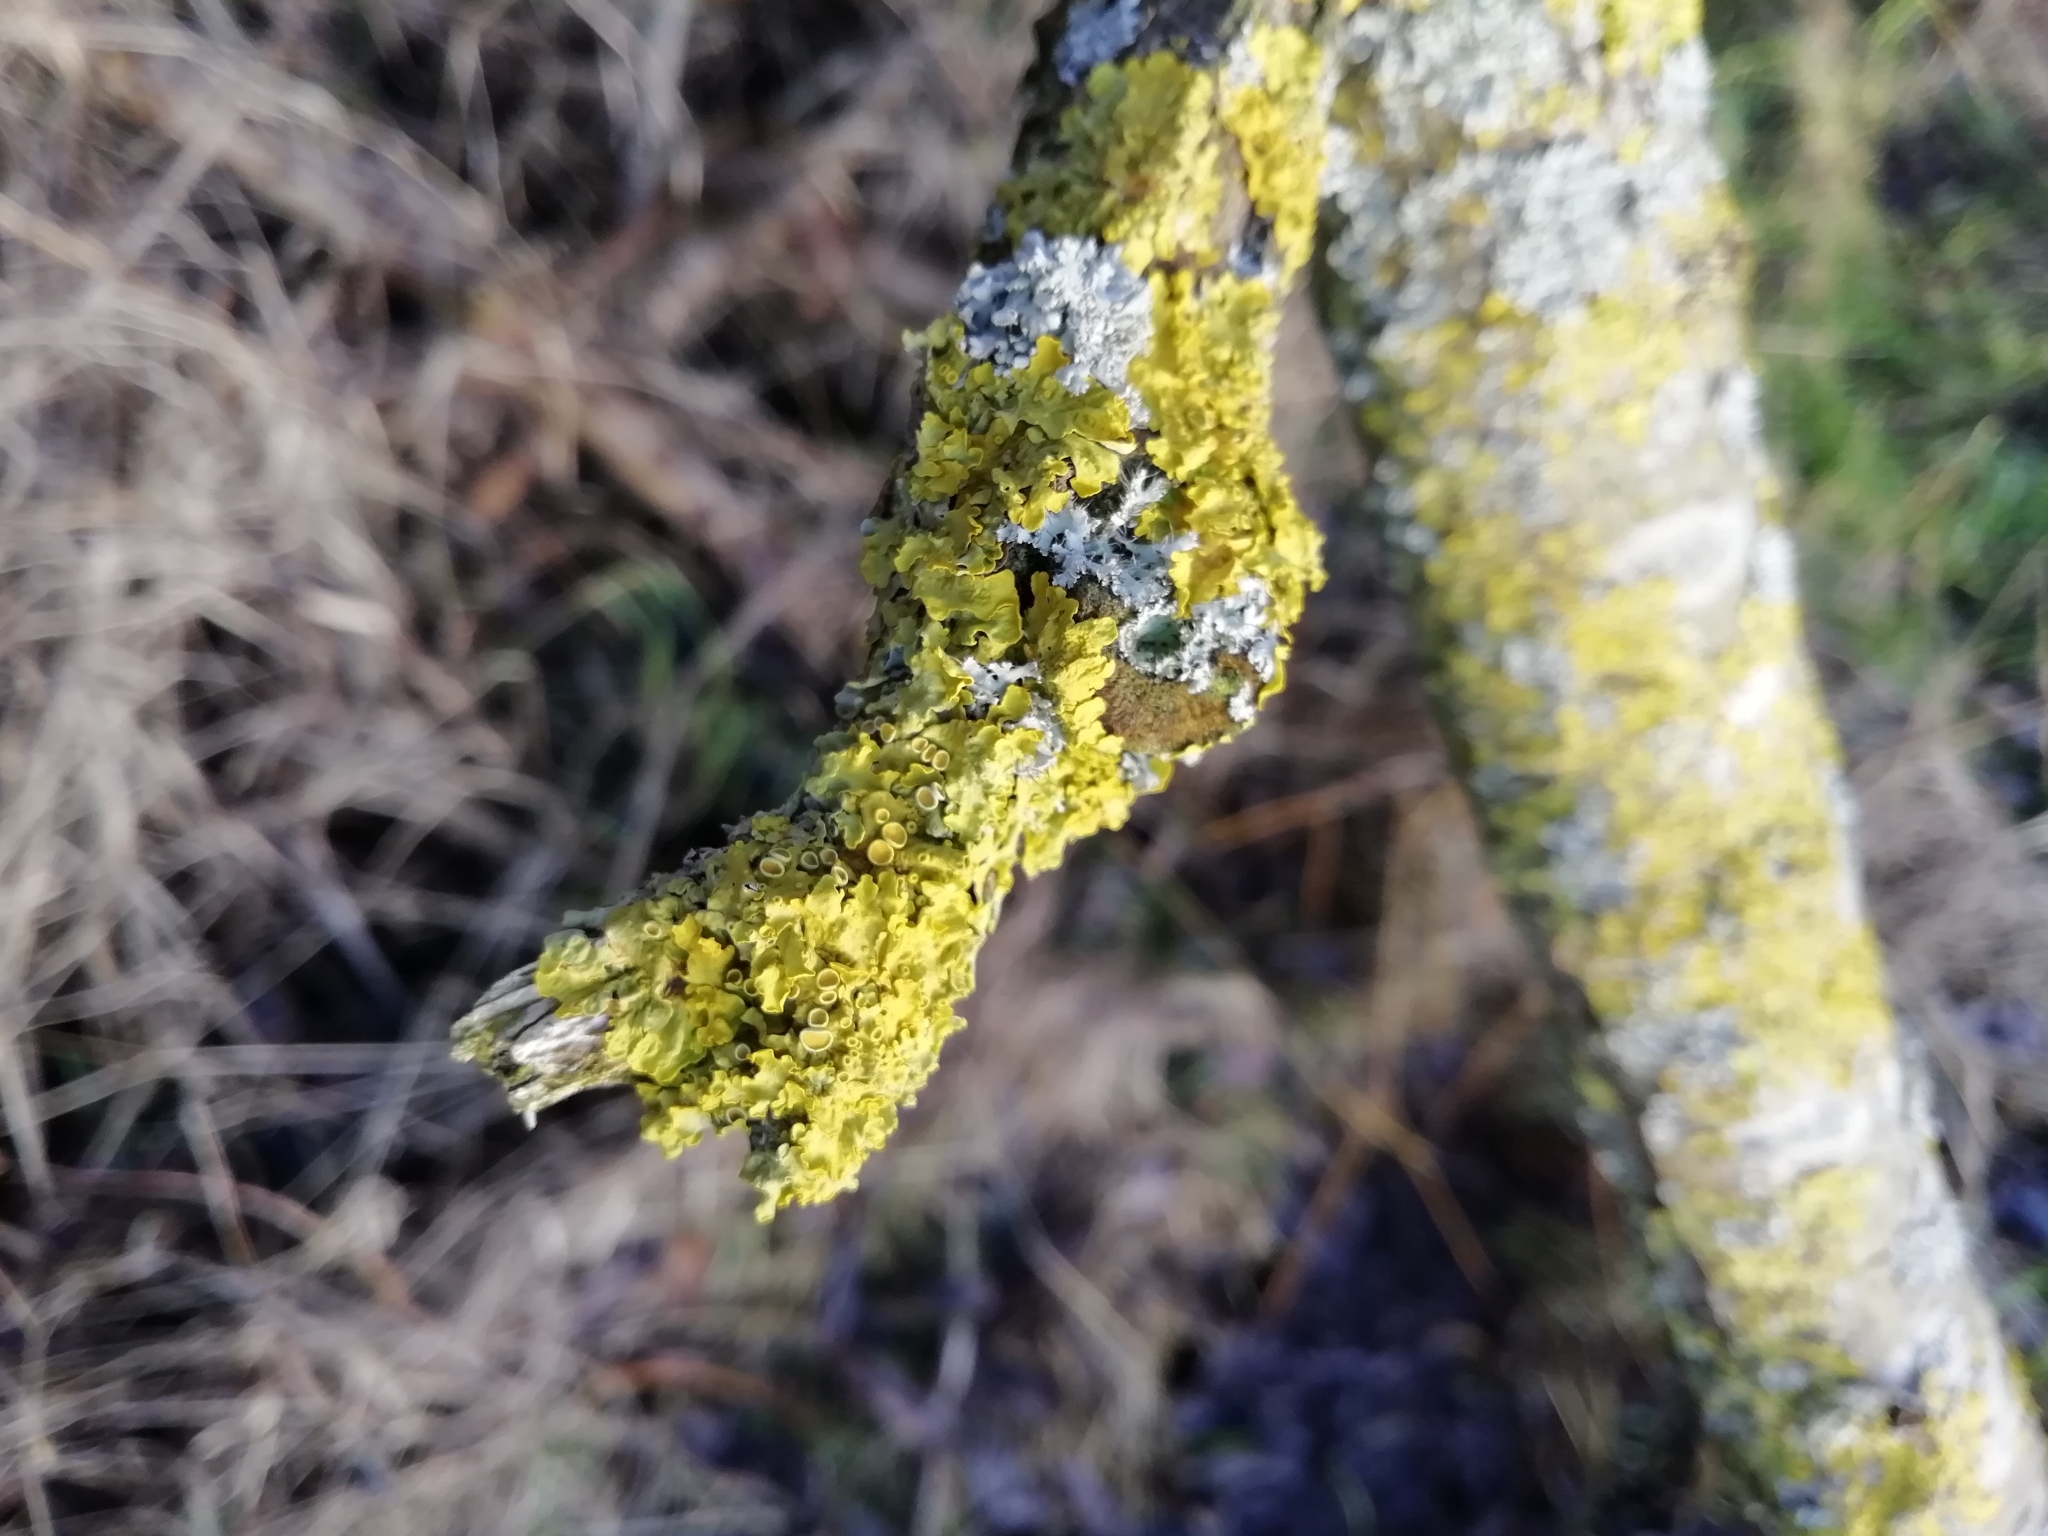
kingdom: Fungi
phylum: Ascomycota
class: Lecanoromycetes
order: Teloschistales
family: Teloschistaceae
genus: Xanthoria
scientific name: Xanthoria parietina
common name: Common orange lichen
